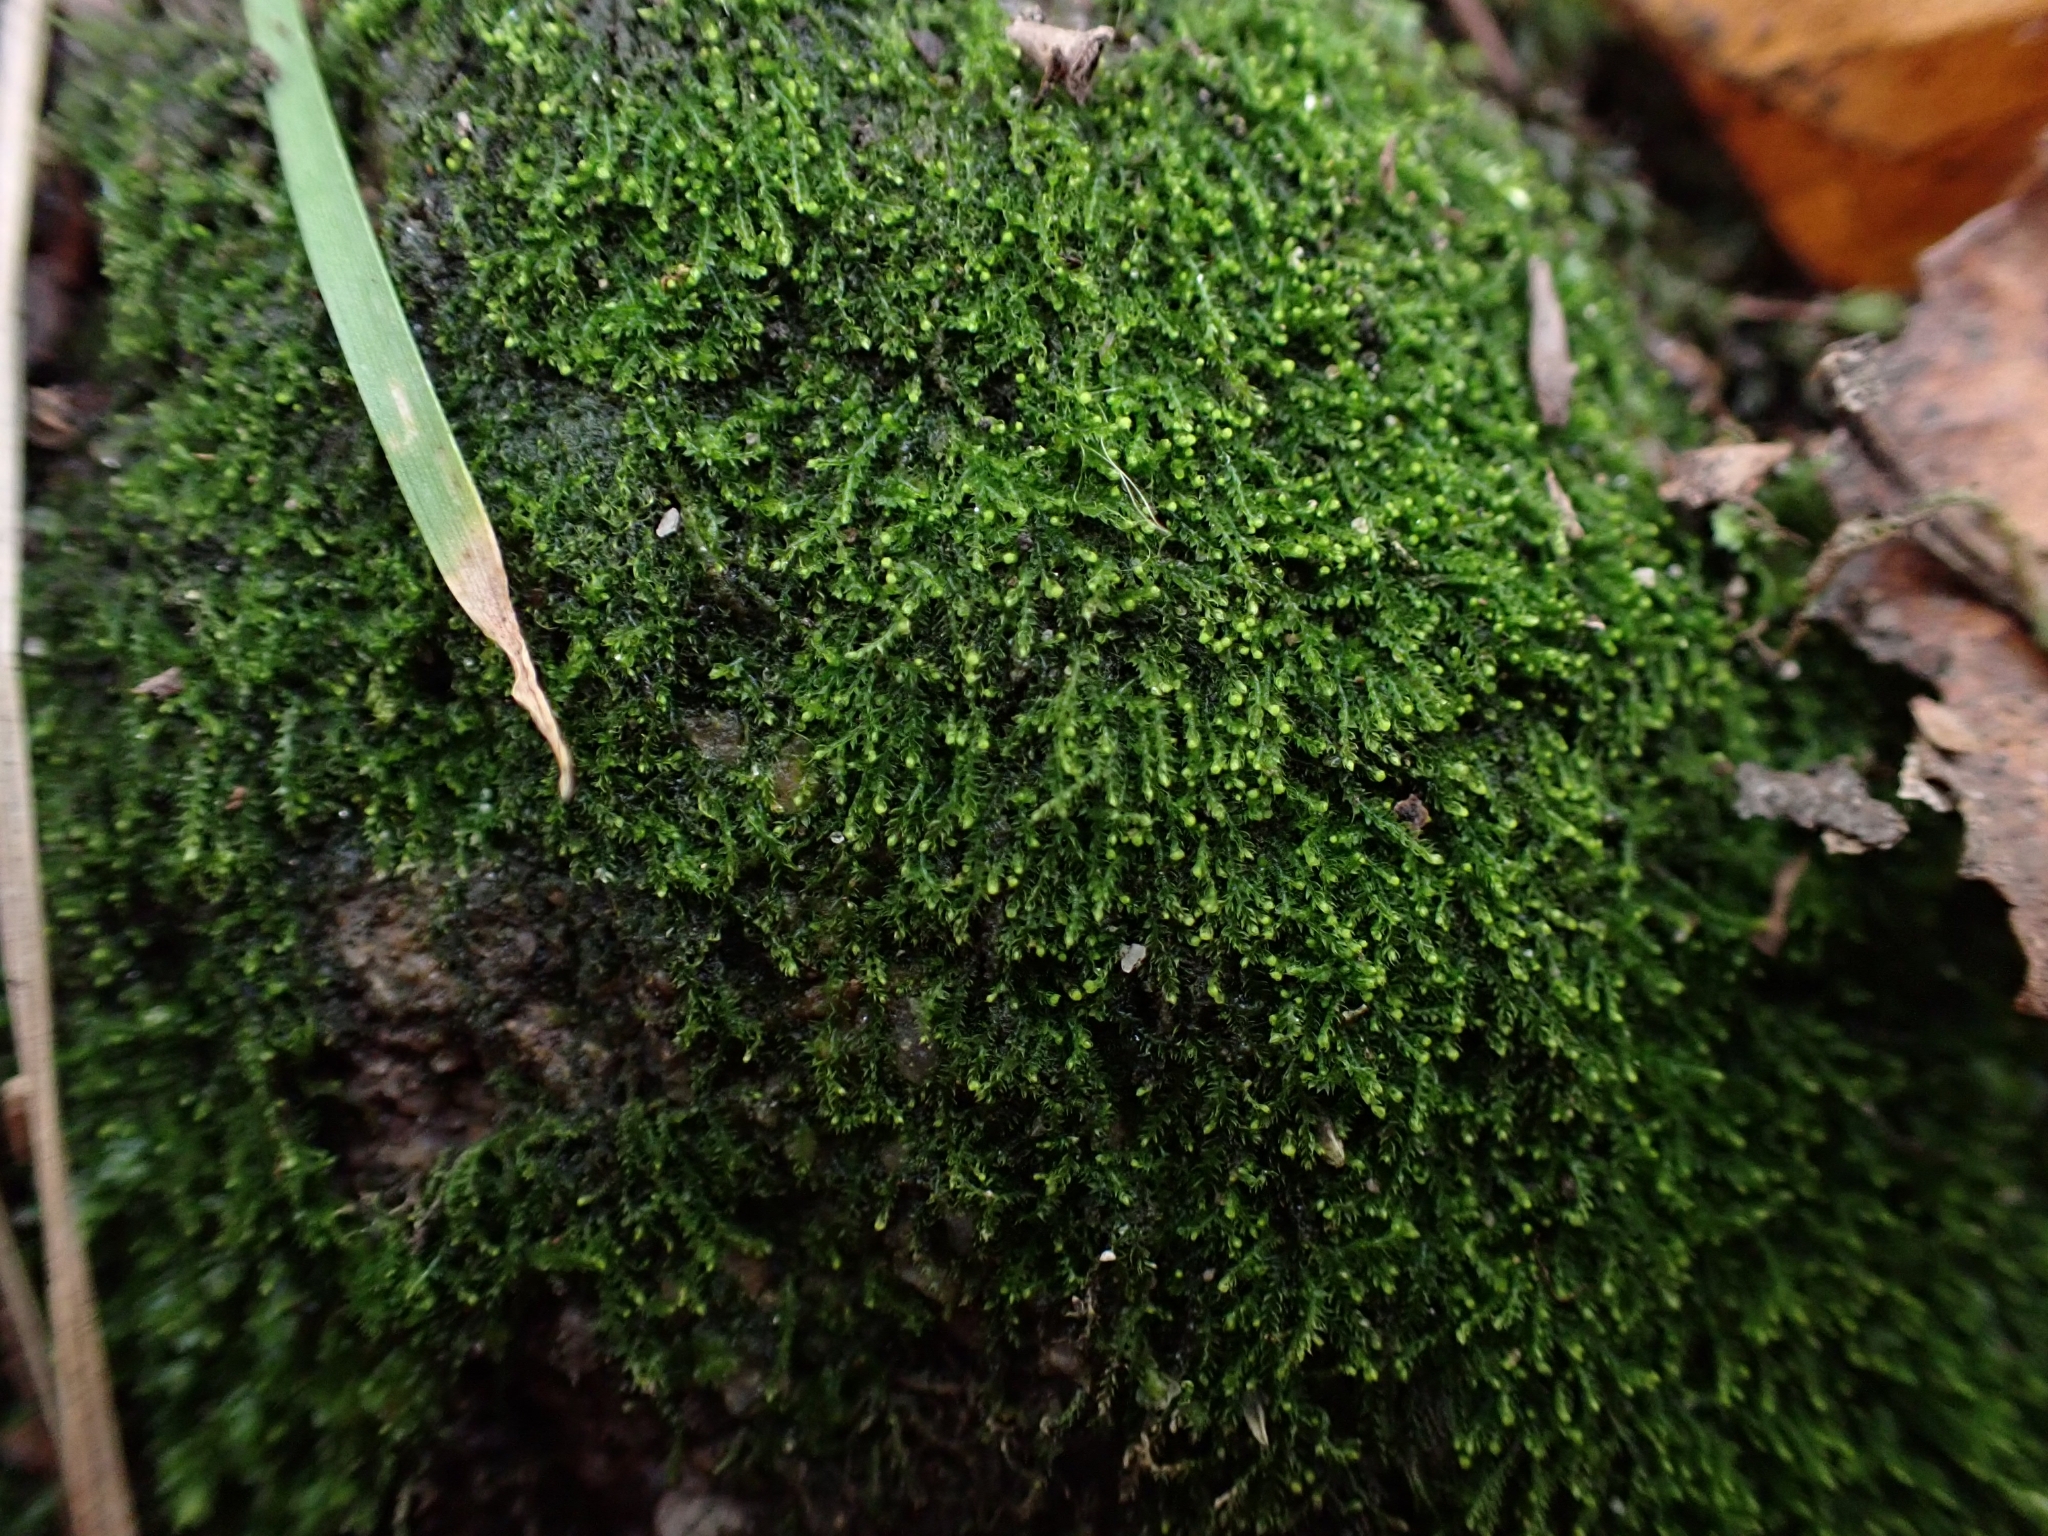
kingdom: Plantae
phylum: Marchantiophyta
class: Jungermanniopsida
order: Jungermanniales
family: Cephaloziaceae
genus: Cephalozia
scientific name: Cephalozia bicuspidata
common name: Two-horned pincerwort
